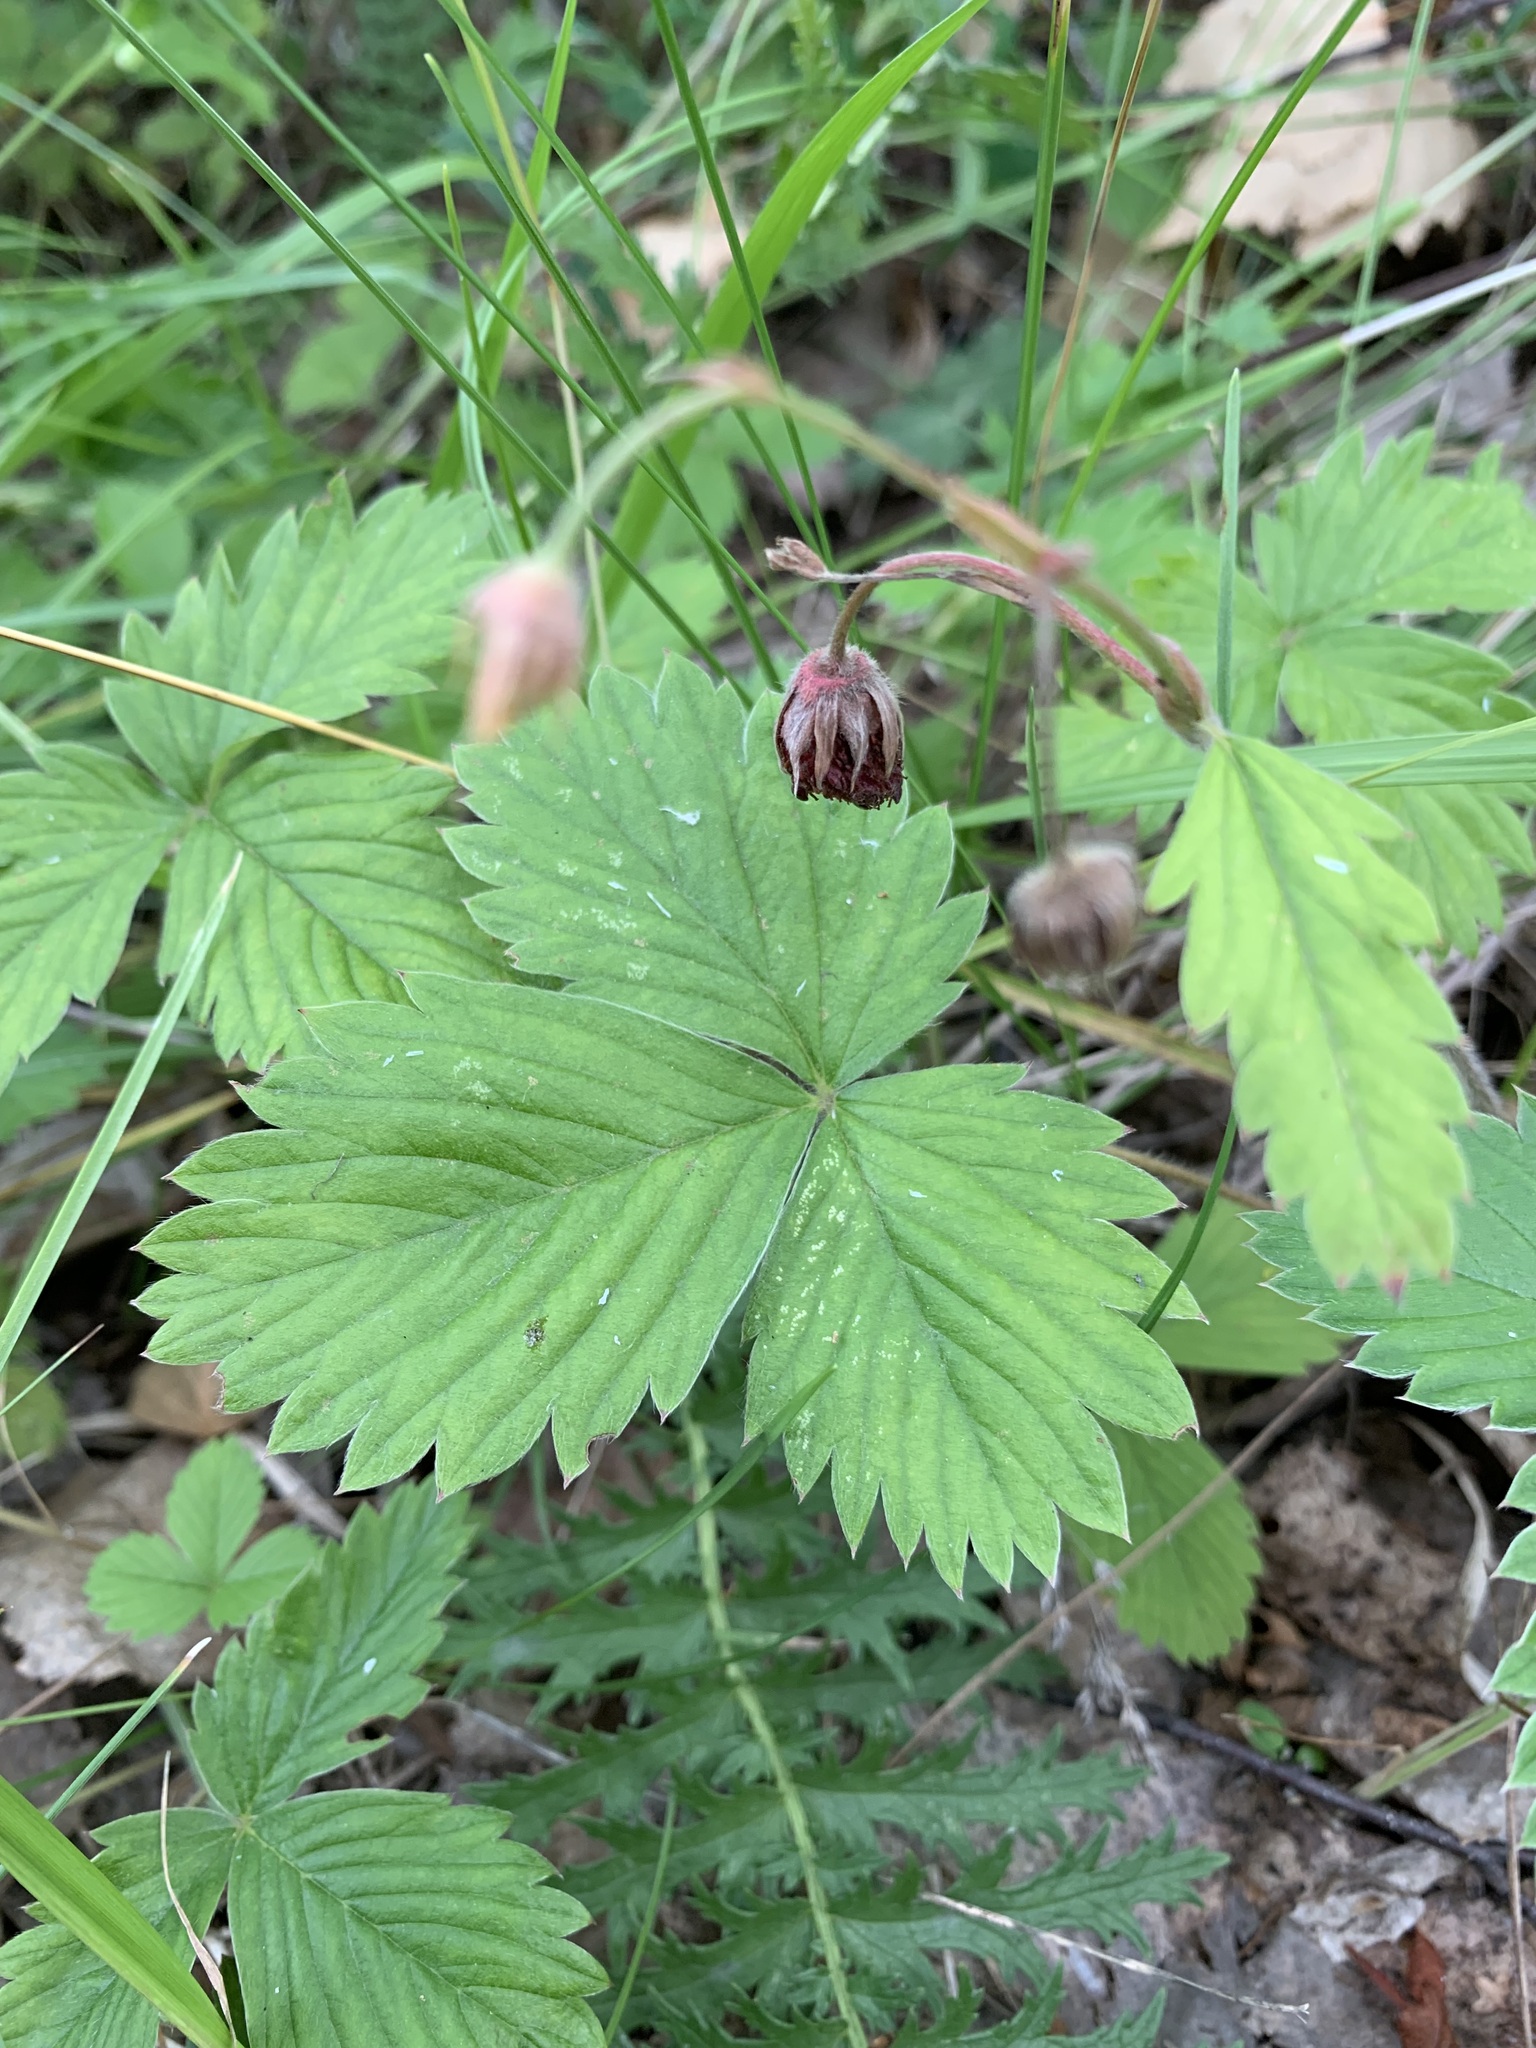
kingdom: Plantae
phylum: Tracheophyta
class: Magnoliopsida
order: Rosales
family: Rosaceae
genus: Fragaria
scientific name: Fragaria viridis
